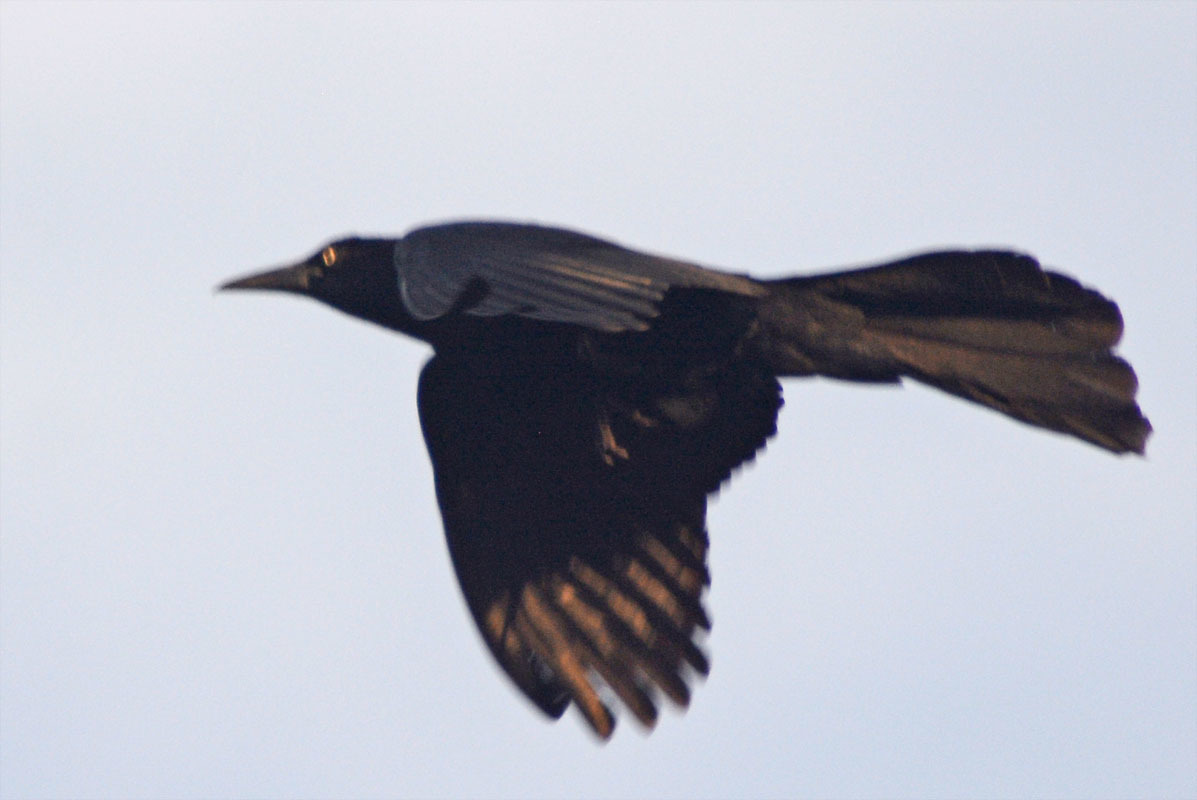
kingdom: Animalia
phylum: Chordata
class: Aves
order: Passeriformes
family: Icteridae
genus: Quiscalus
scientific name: Quiscalus mexicanus
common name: Great-tailed grackle
